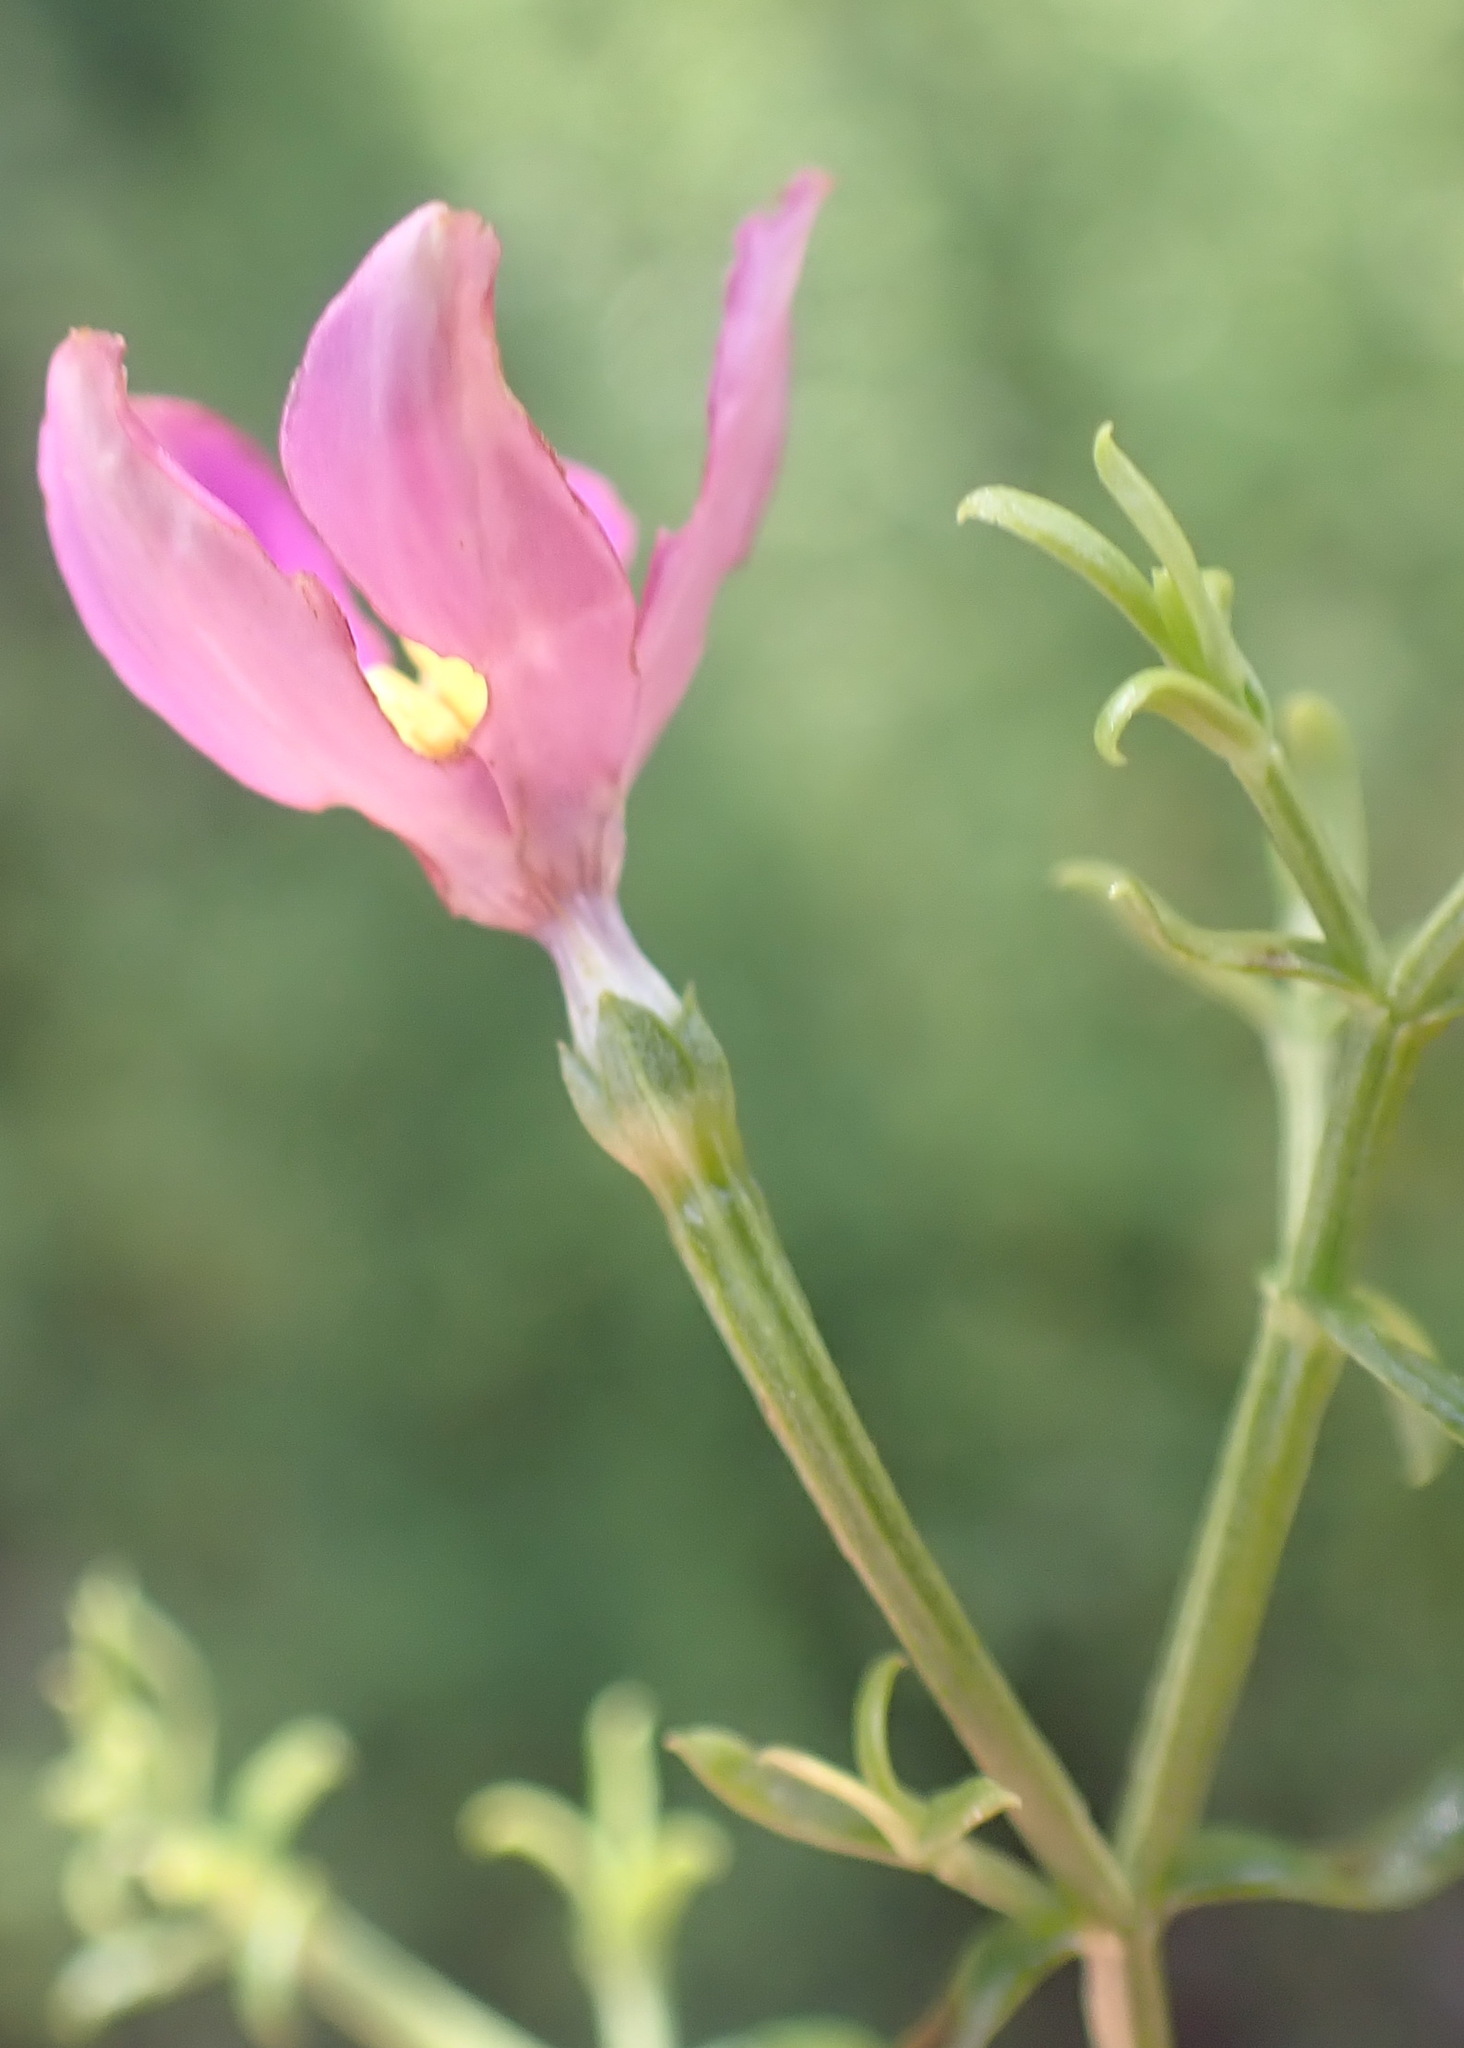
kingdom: Plantae
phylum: Tracheophyta
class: Magnoliopsida
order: Gentianales
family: Gentianaceae
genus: Chironia
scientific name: Chironia baccifera
